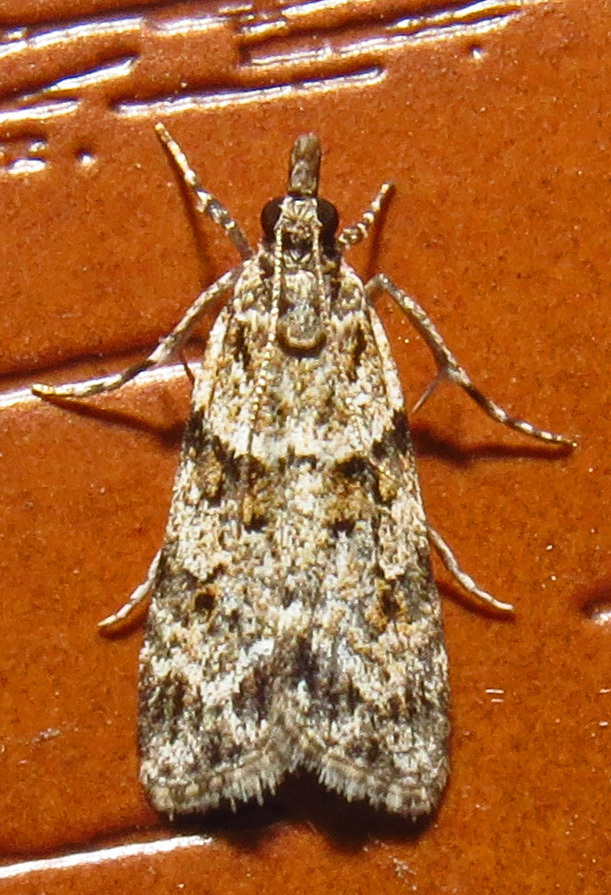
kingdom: Animalia
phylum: Arthropoda
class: Insecta
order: Lepidoptera
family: Crambidae
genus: Scoparia
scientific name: Scoparia biplagialis
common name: Double-striped scoparia moth
